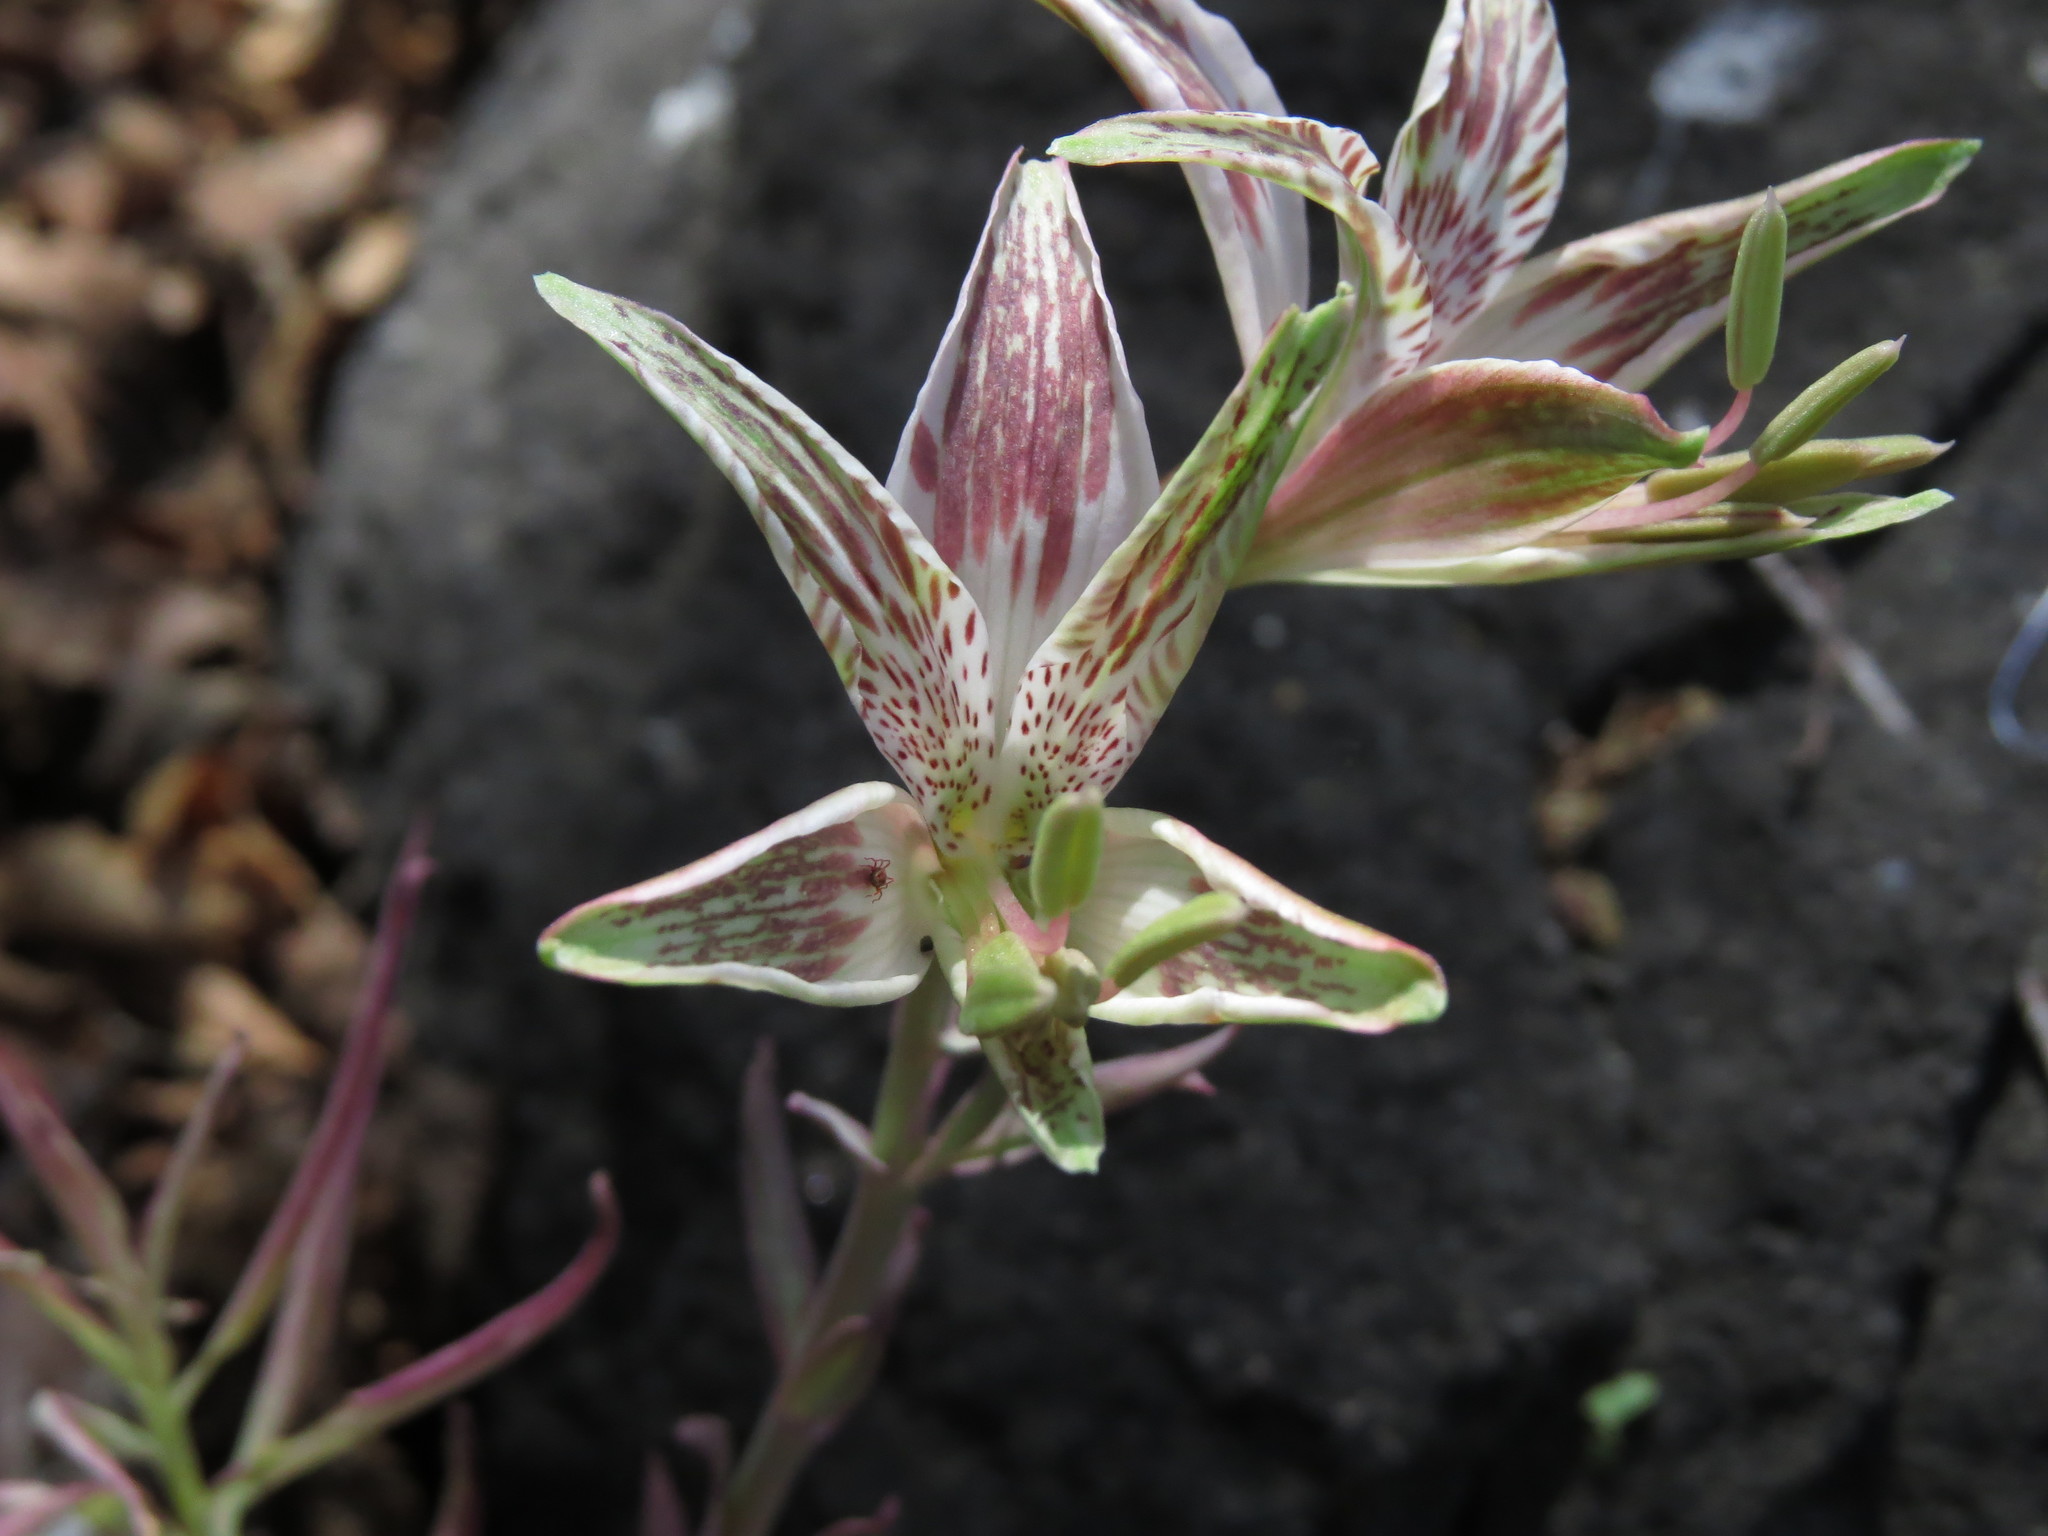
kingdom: Plantae
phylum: Tracheophyta
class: Liliopsida
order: Liliales
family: Alstroemeriaceae
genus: Alstroemeria
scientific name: Alstroemeria garaventae
